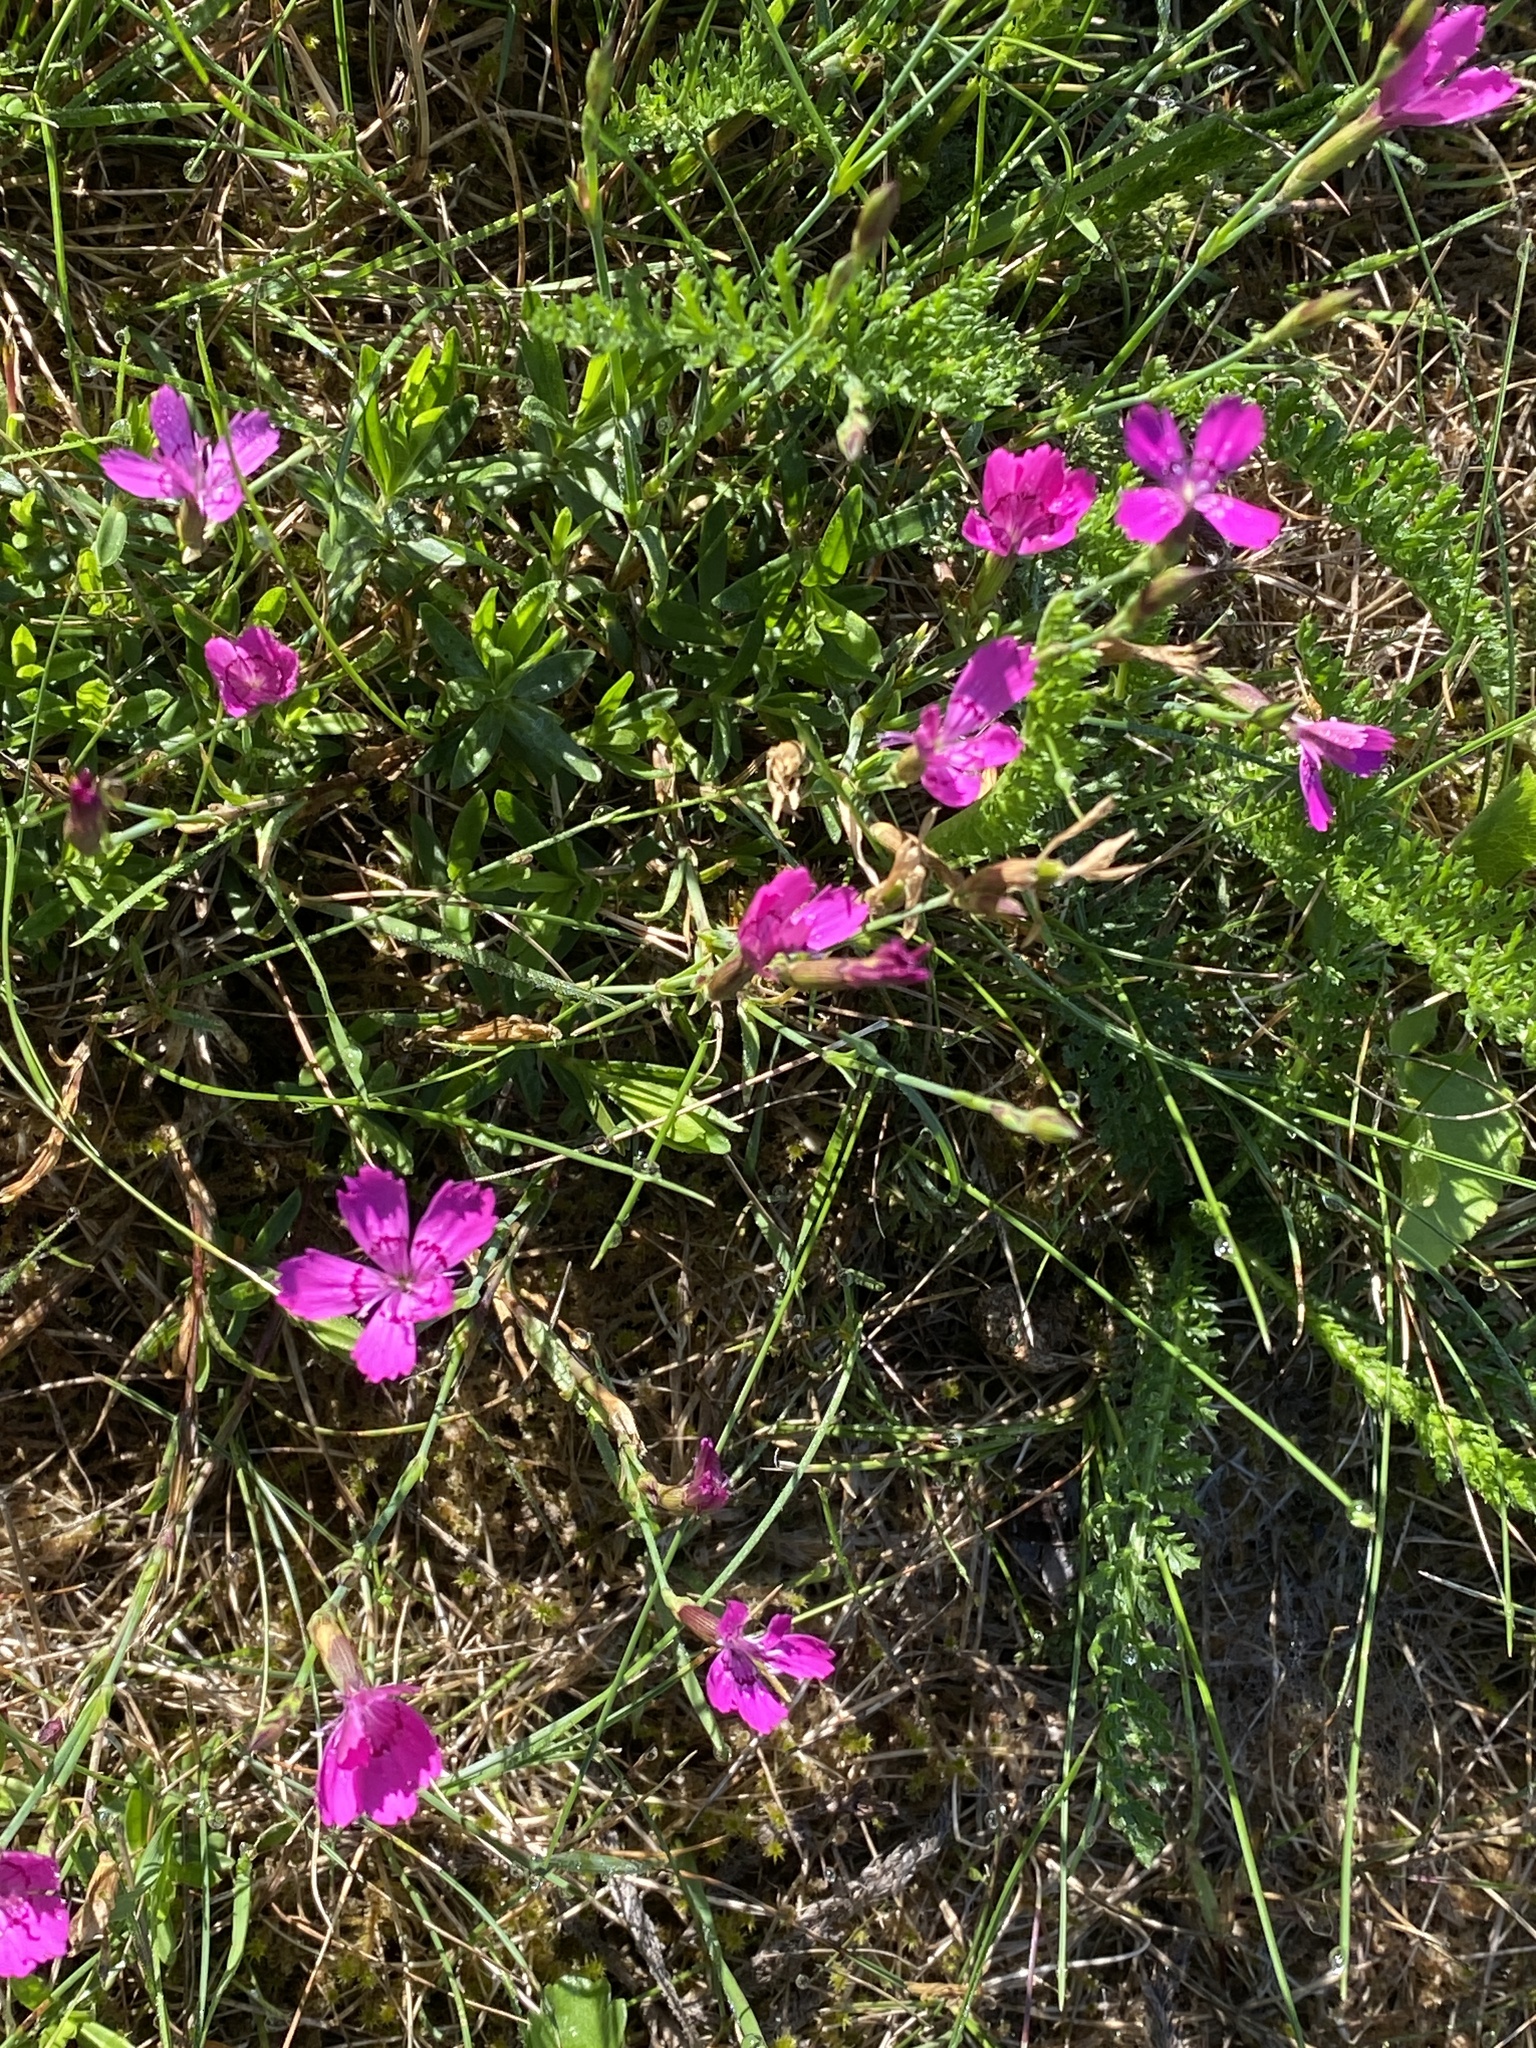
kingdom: Plantae
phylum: Tracheophyta
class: Magnoliopsida
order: Caryophyllales
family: Caryophyllaceae
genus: Dianthus
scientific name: Dianthus deltoides
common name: Maiden pink
